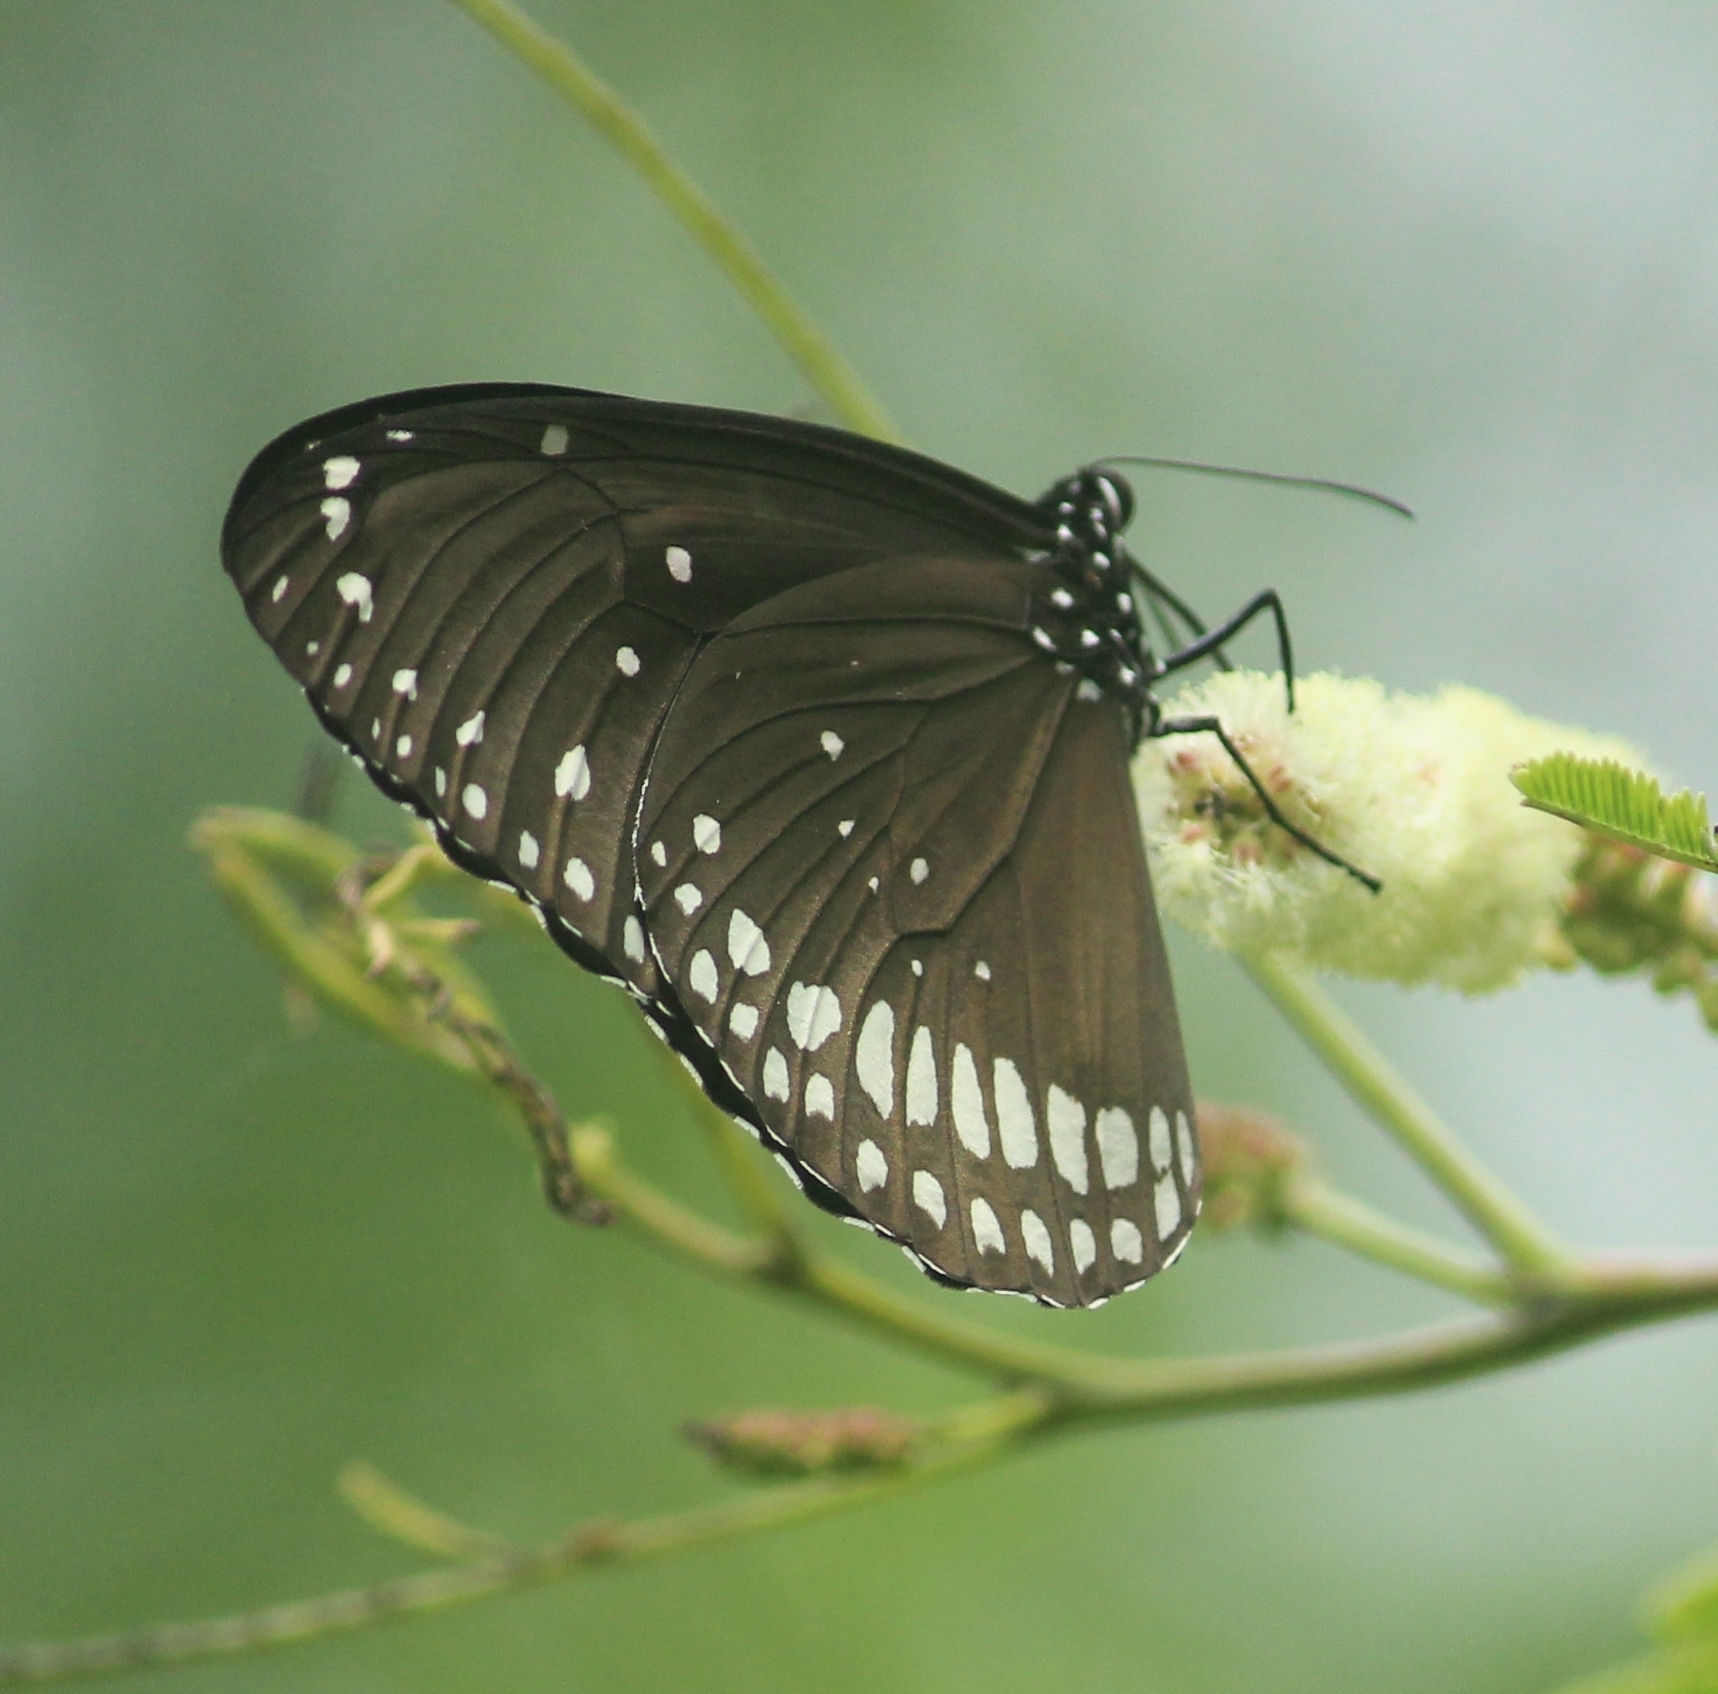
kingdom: Animalia
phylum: Arthropoda
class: Insecta
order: Lepidoptera
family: Nymphalidae
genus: Euploea
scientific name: Euploea core
